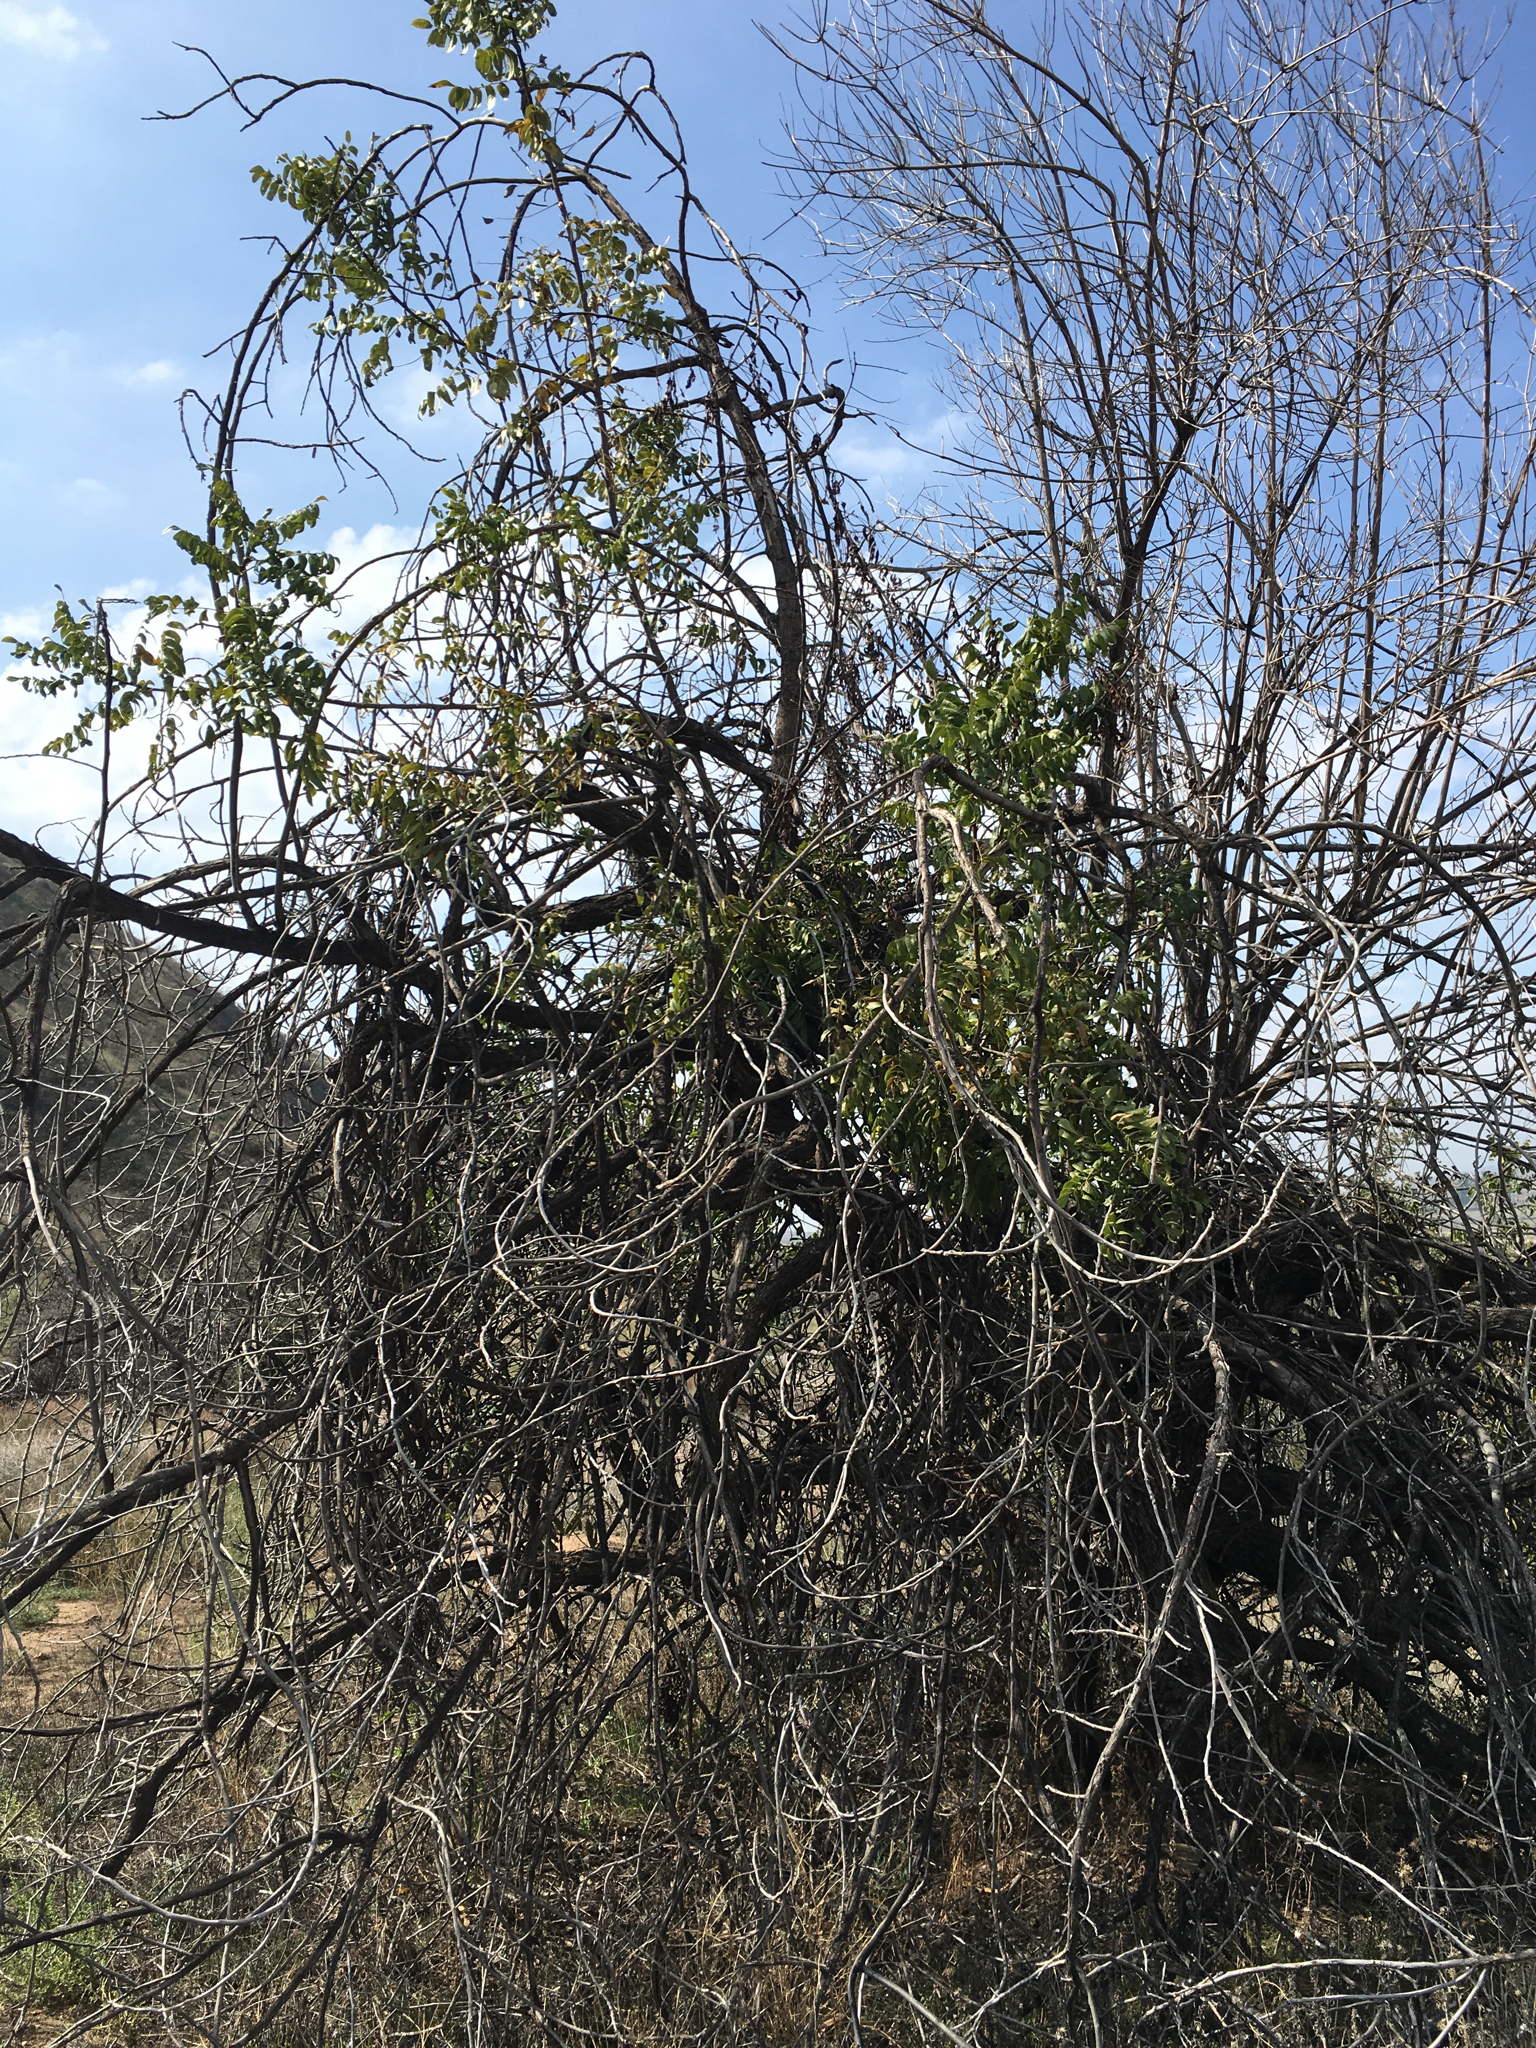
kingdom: Plantae
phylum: Tracheophyta
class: Magnoliopsida
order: Fagales
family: Juglandaceae
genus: Juglans
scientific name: Juglans californica
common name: Southern california black walnut
